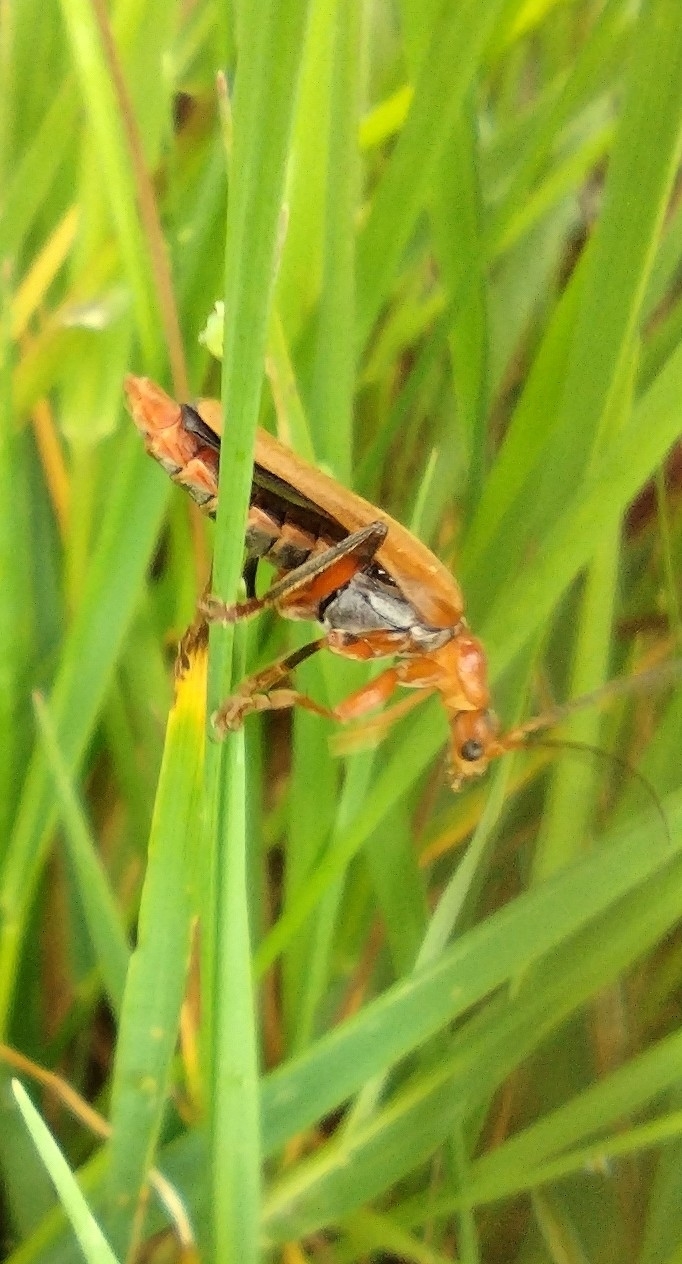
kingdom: Animalia
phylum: Arthropoda
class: Insecta
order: Coleoptera
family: Cantharidae
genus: Cantharis
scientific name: Cantharis livida
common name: Livid soldier beetle
